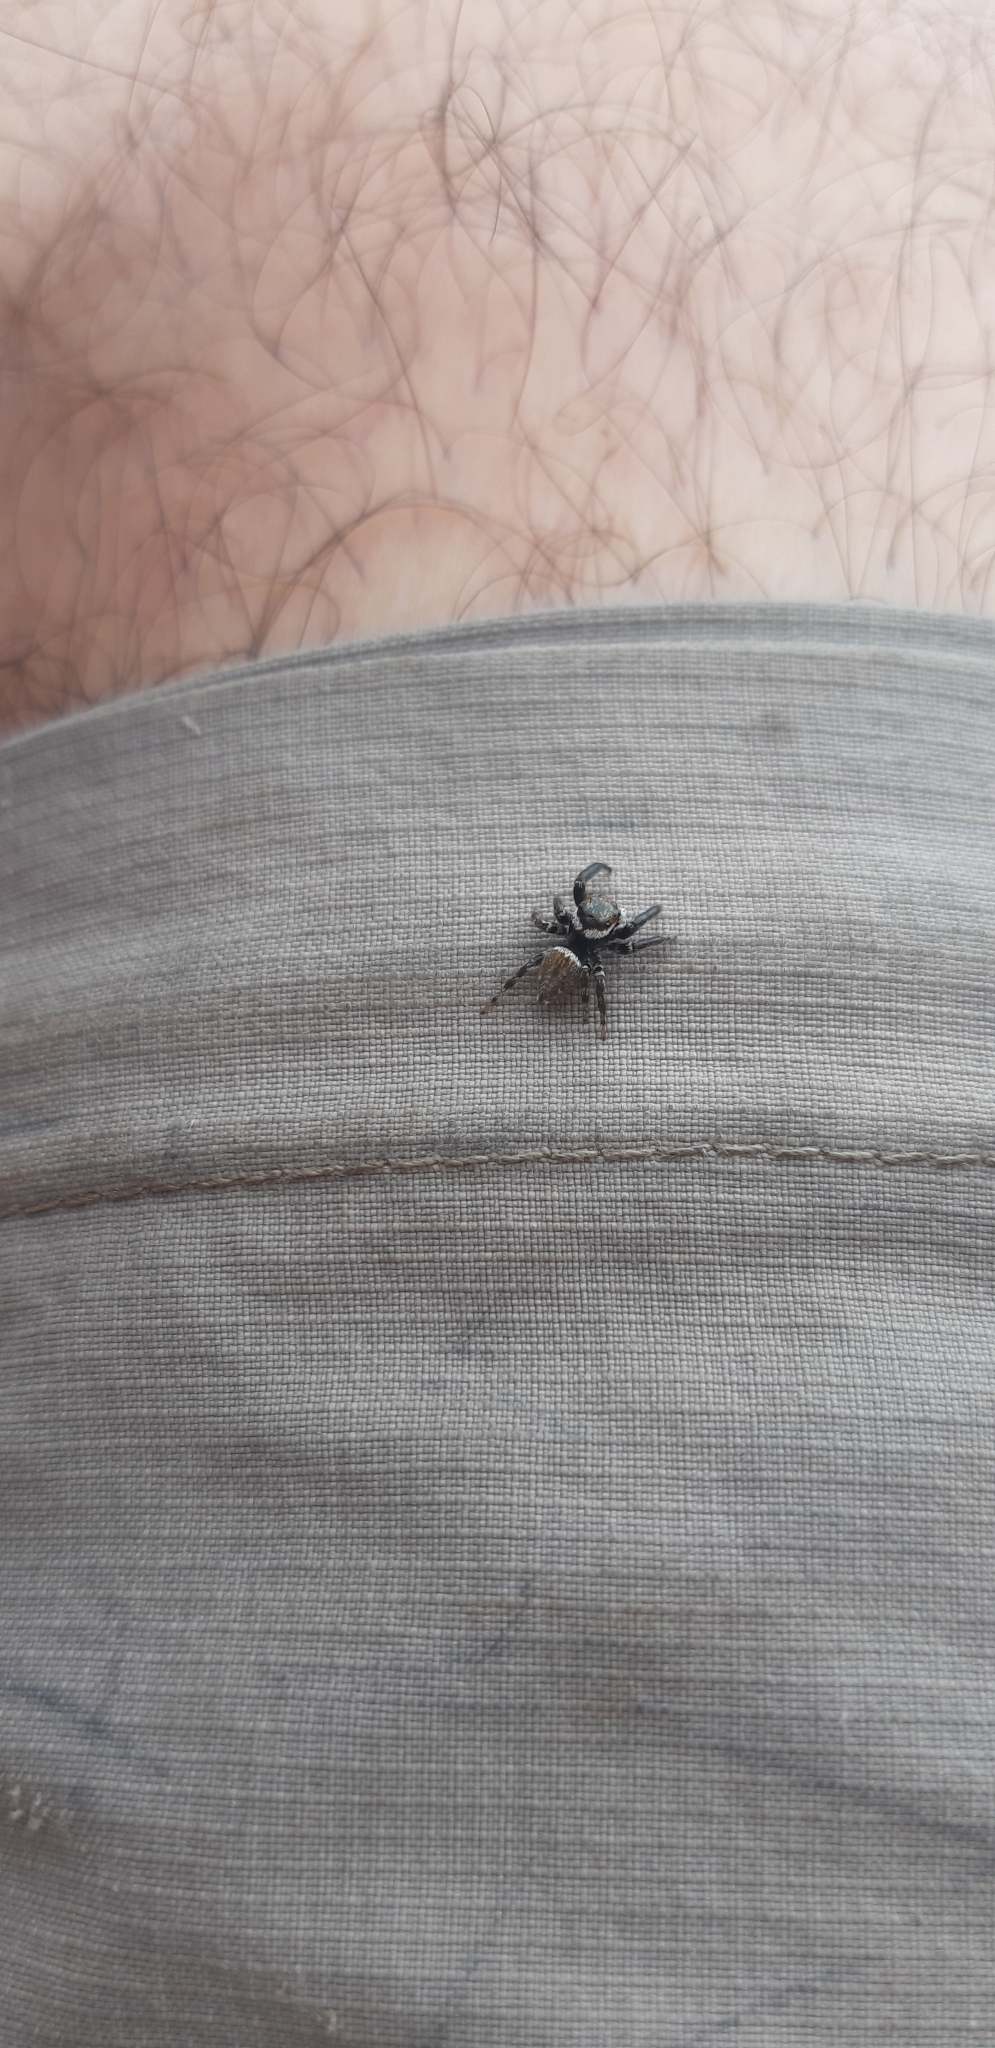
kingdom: Animalia
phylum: Arthropoda
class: Arachnida
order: Araneae
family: Salticidae
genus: Evarcha
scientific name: Evarcha jucunda
